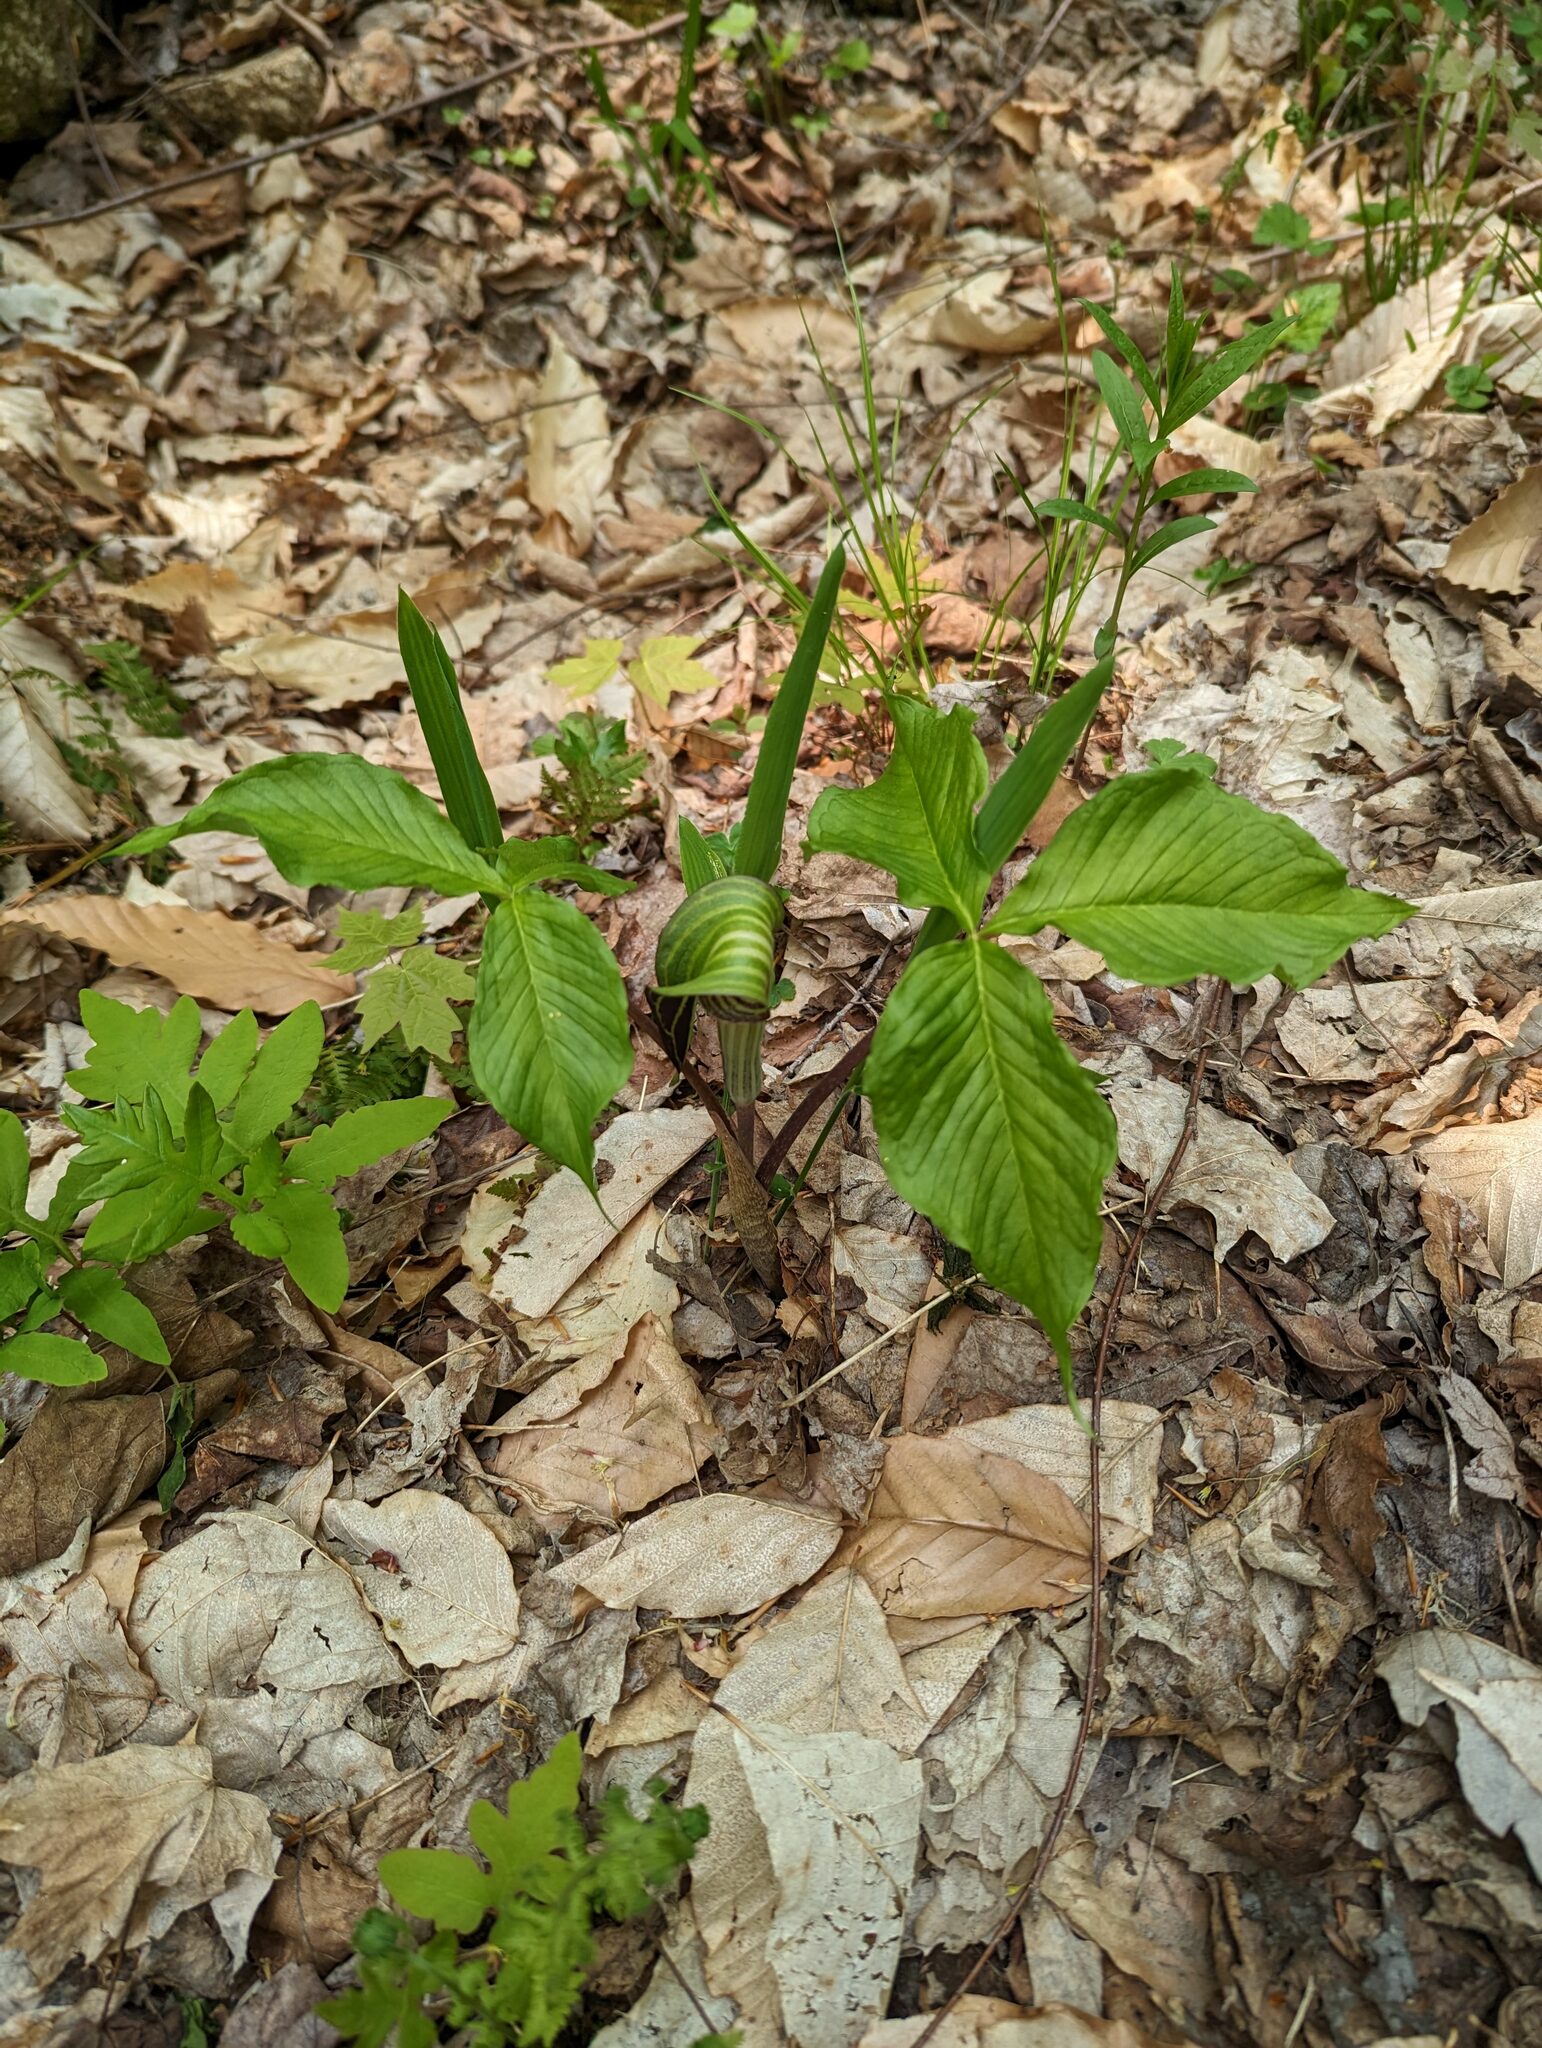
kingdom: Plantae
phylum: Tracheophyta
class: Liliopsida
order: Alismatales
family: Araceae
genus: Arisaema
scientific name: Arisaema triphyllum
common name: Jack-in-the-pulpit
